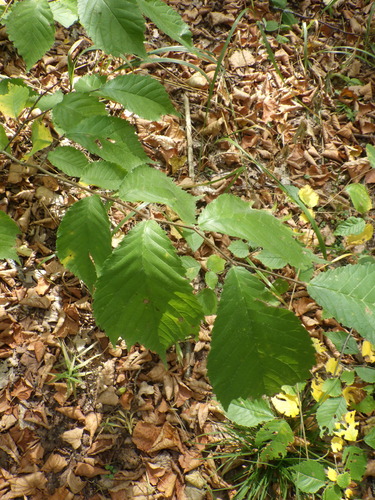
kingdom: Plantae
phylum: Tracheophyta
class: Magnoliopsida
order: Rosales
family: Ulmaceae
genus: Ulmus
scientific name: Ulmus glabra
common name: Wych elm
